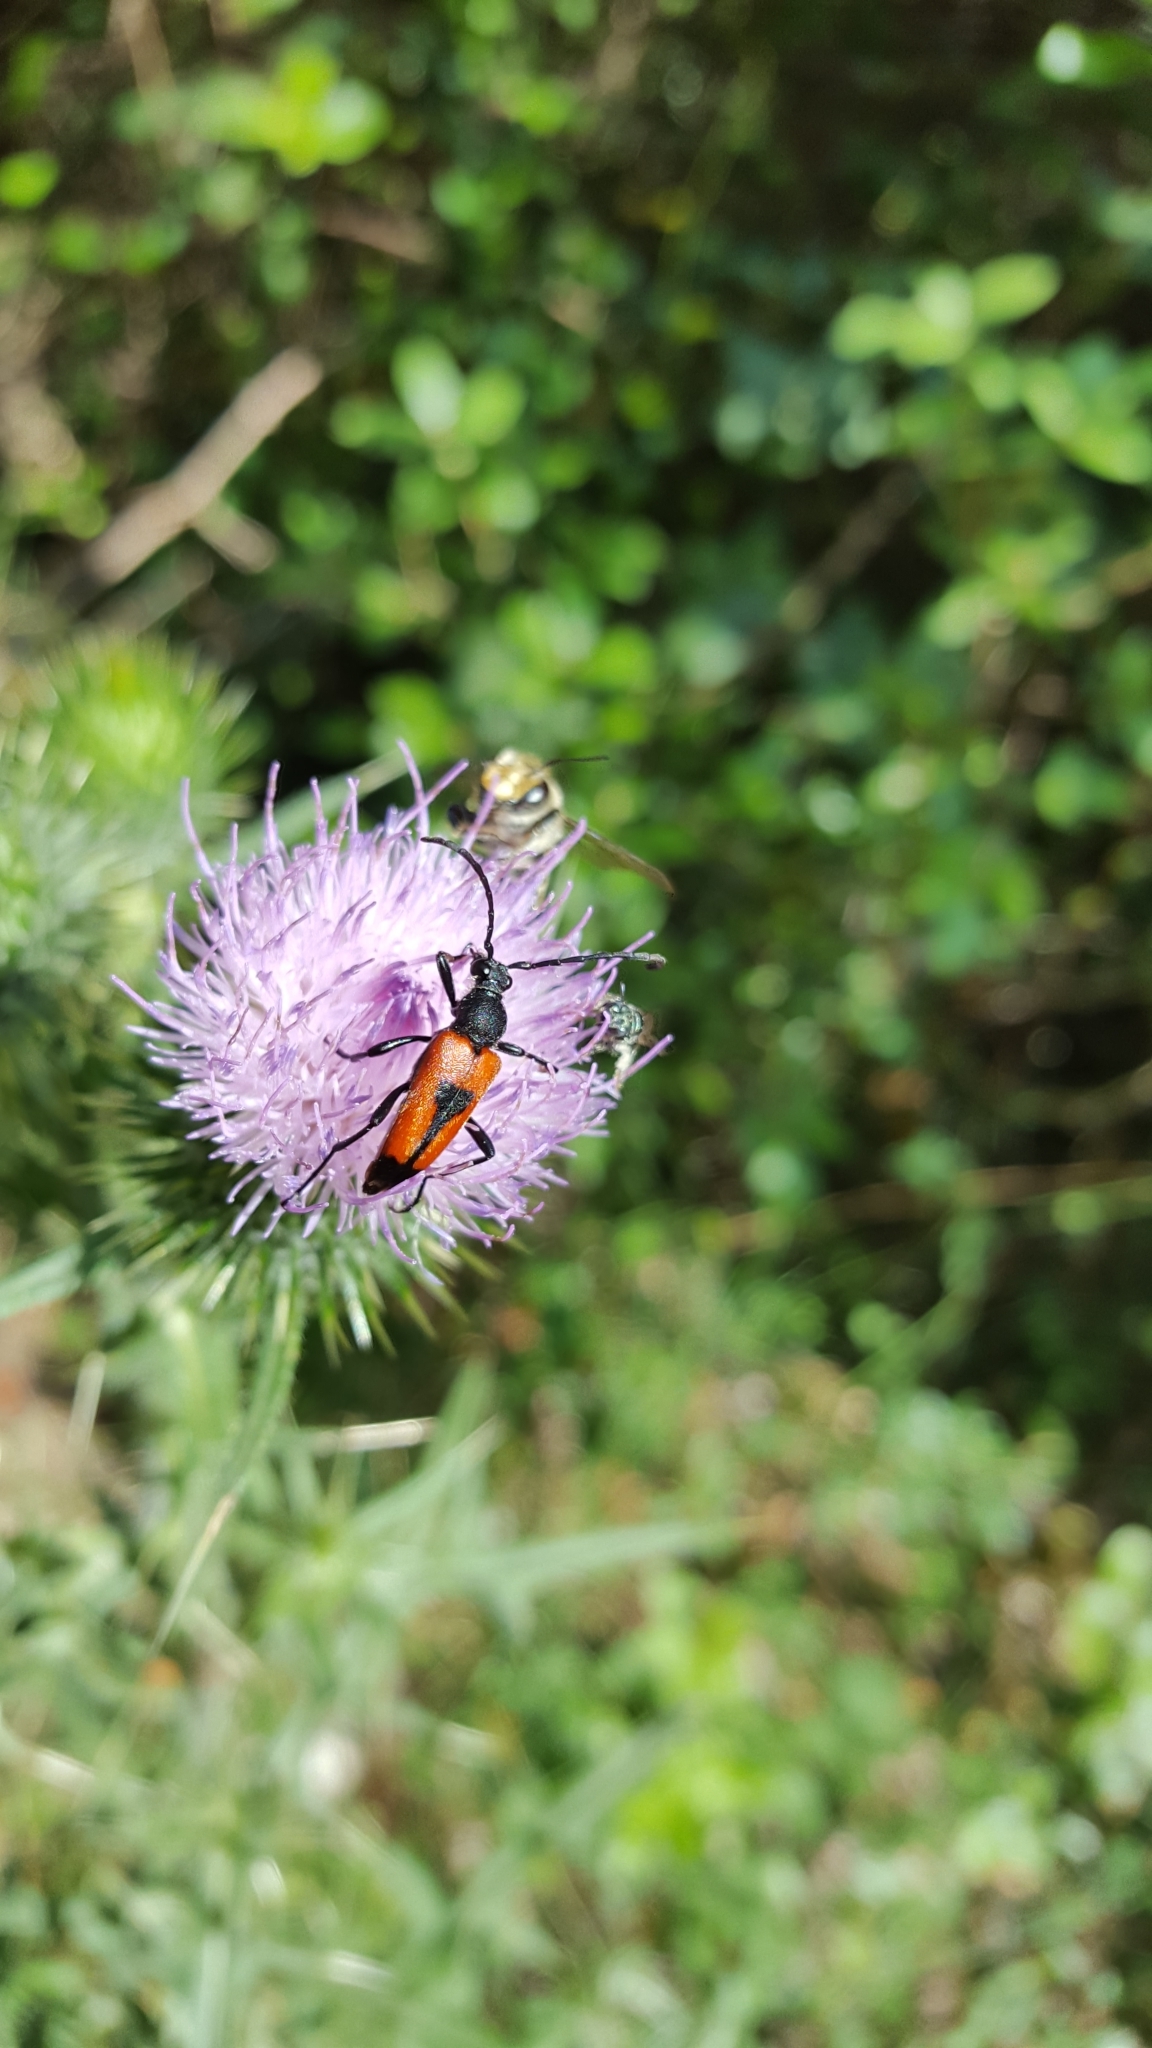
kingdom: Animalia
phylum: Arthropoda
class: Insecta
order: Coleoptera
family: Cerambycidae
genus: Stictoleptura
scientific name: Stictoleptura cordigera
